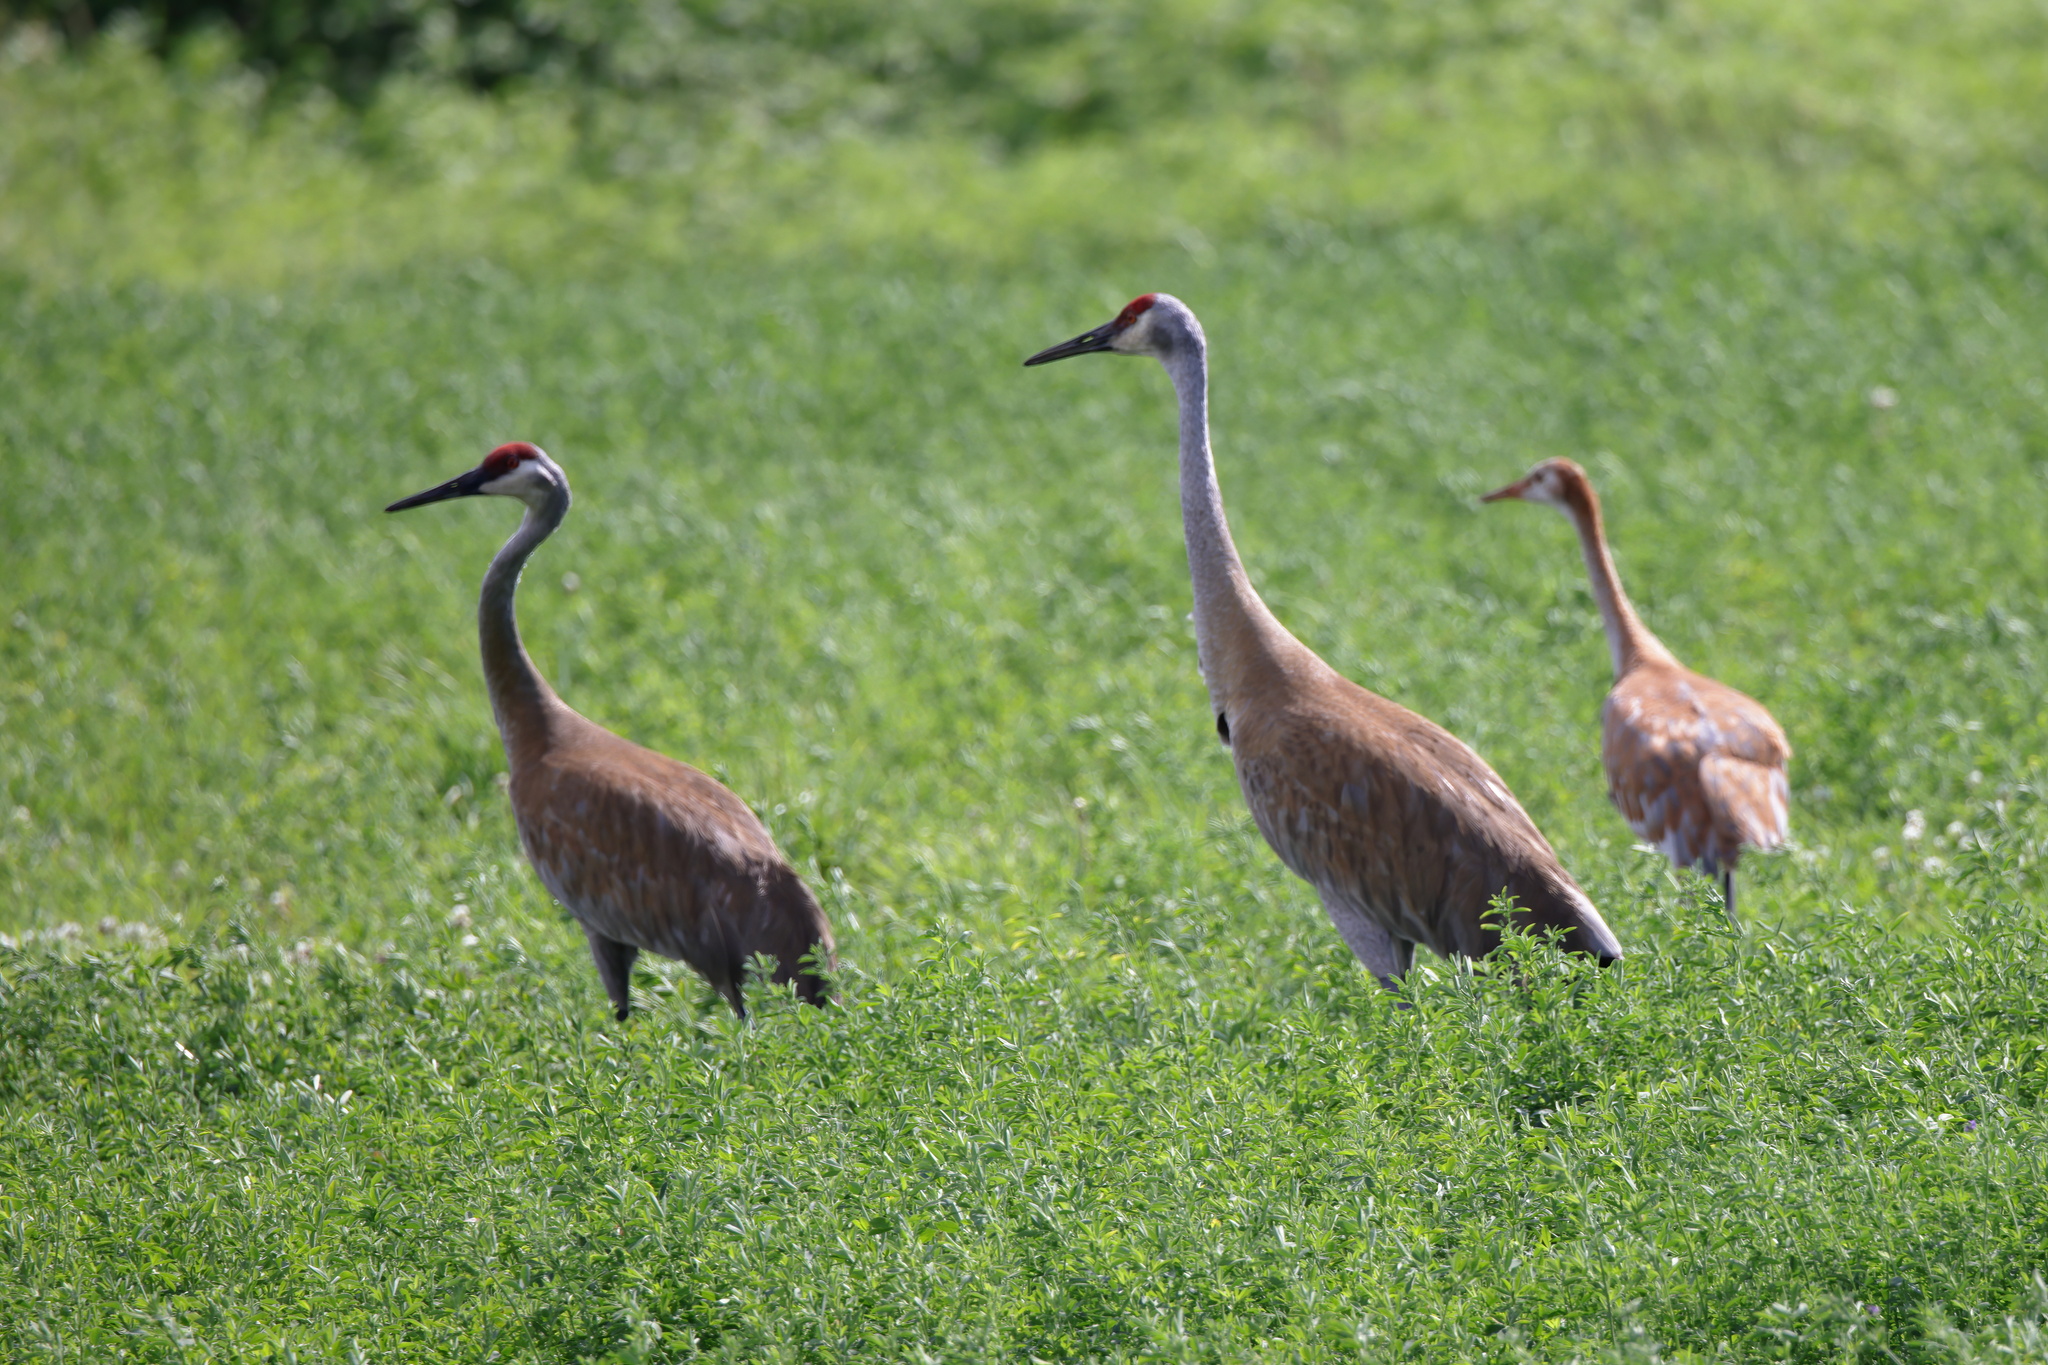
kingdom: Animalia
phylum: Chordata
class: Aves
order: Gruiformes
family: Gruidae
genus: Grus
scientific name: Grus canadensis
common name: Sandhill crane
